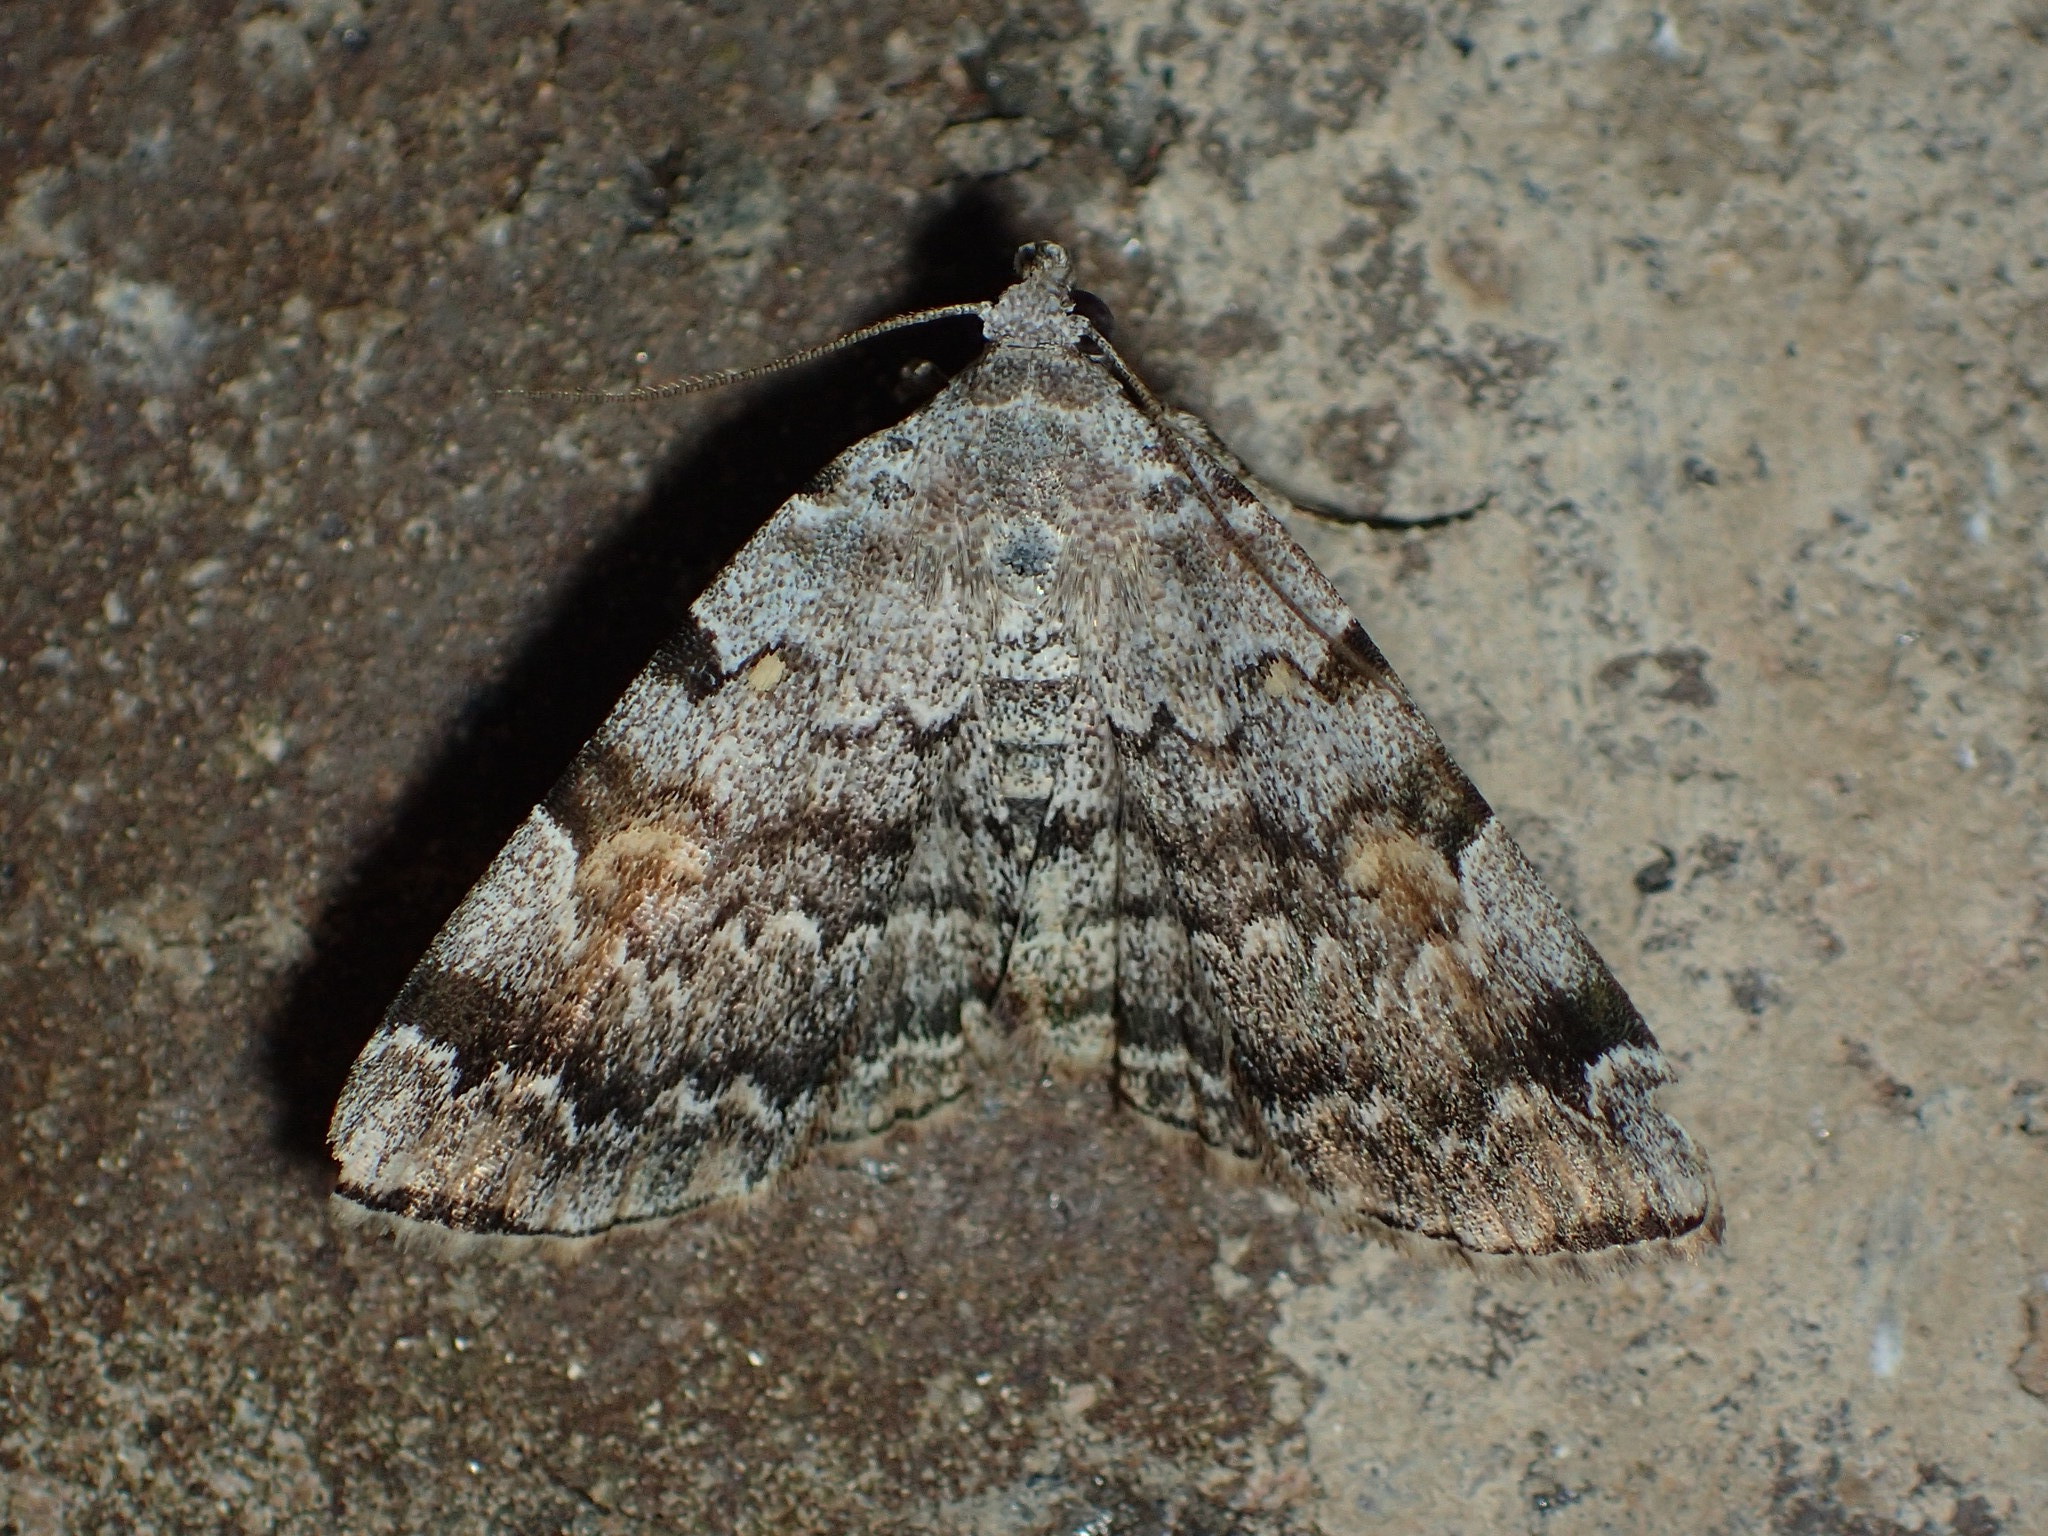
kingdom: Animalia
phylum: Arthropoda
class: Insecta
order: Lepidoptera
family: Erebidae
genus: Idia
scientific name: Idia americalis
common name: American idia moth
